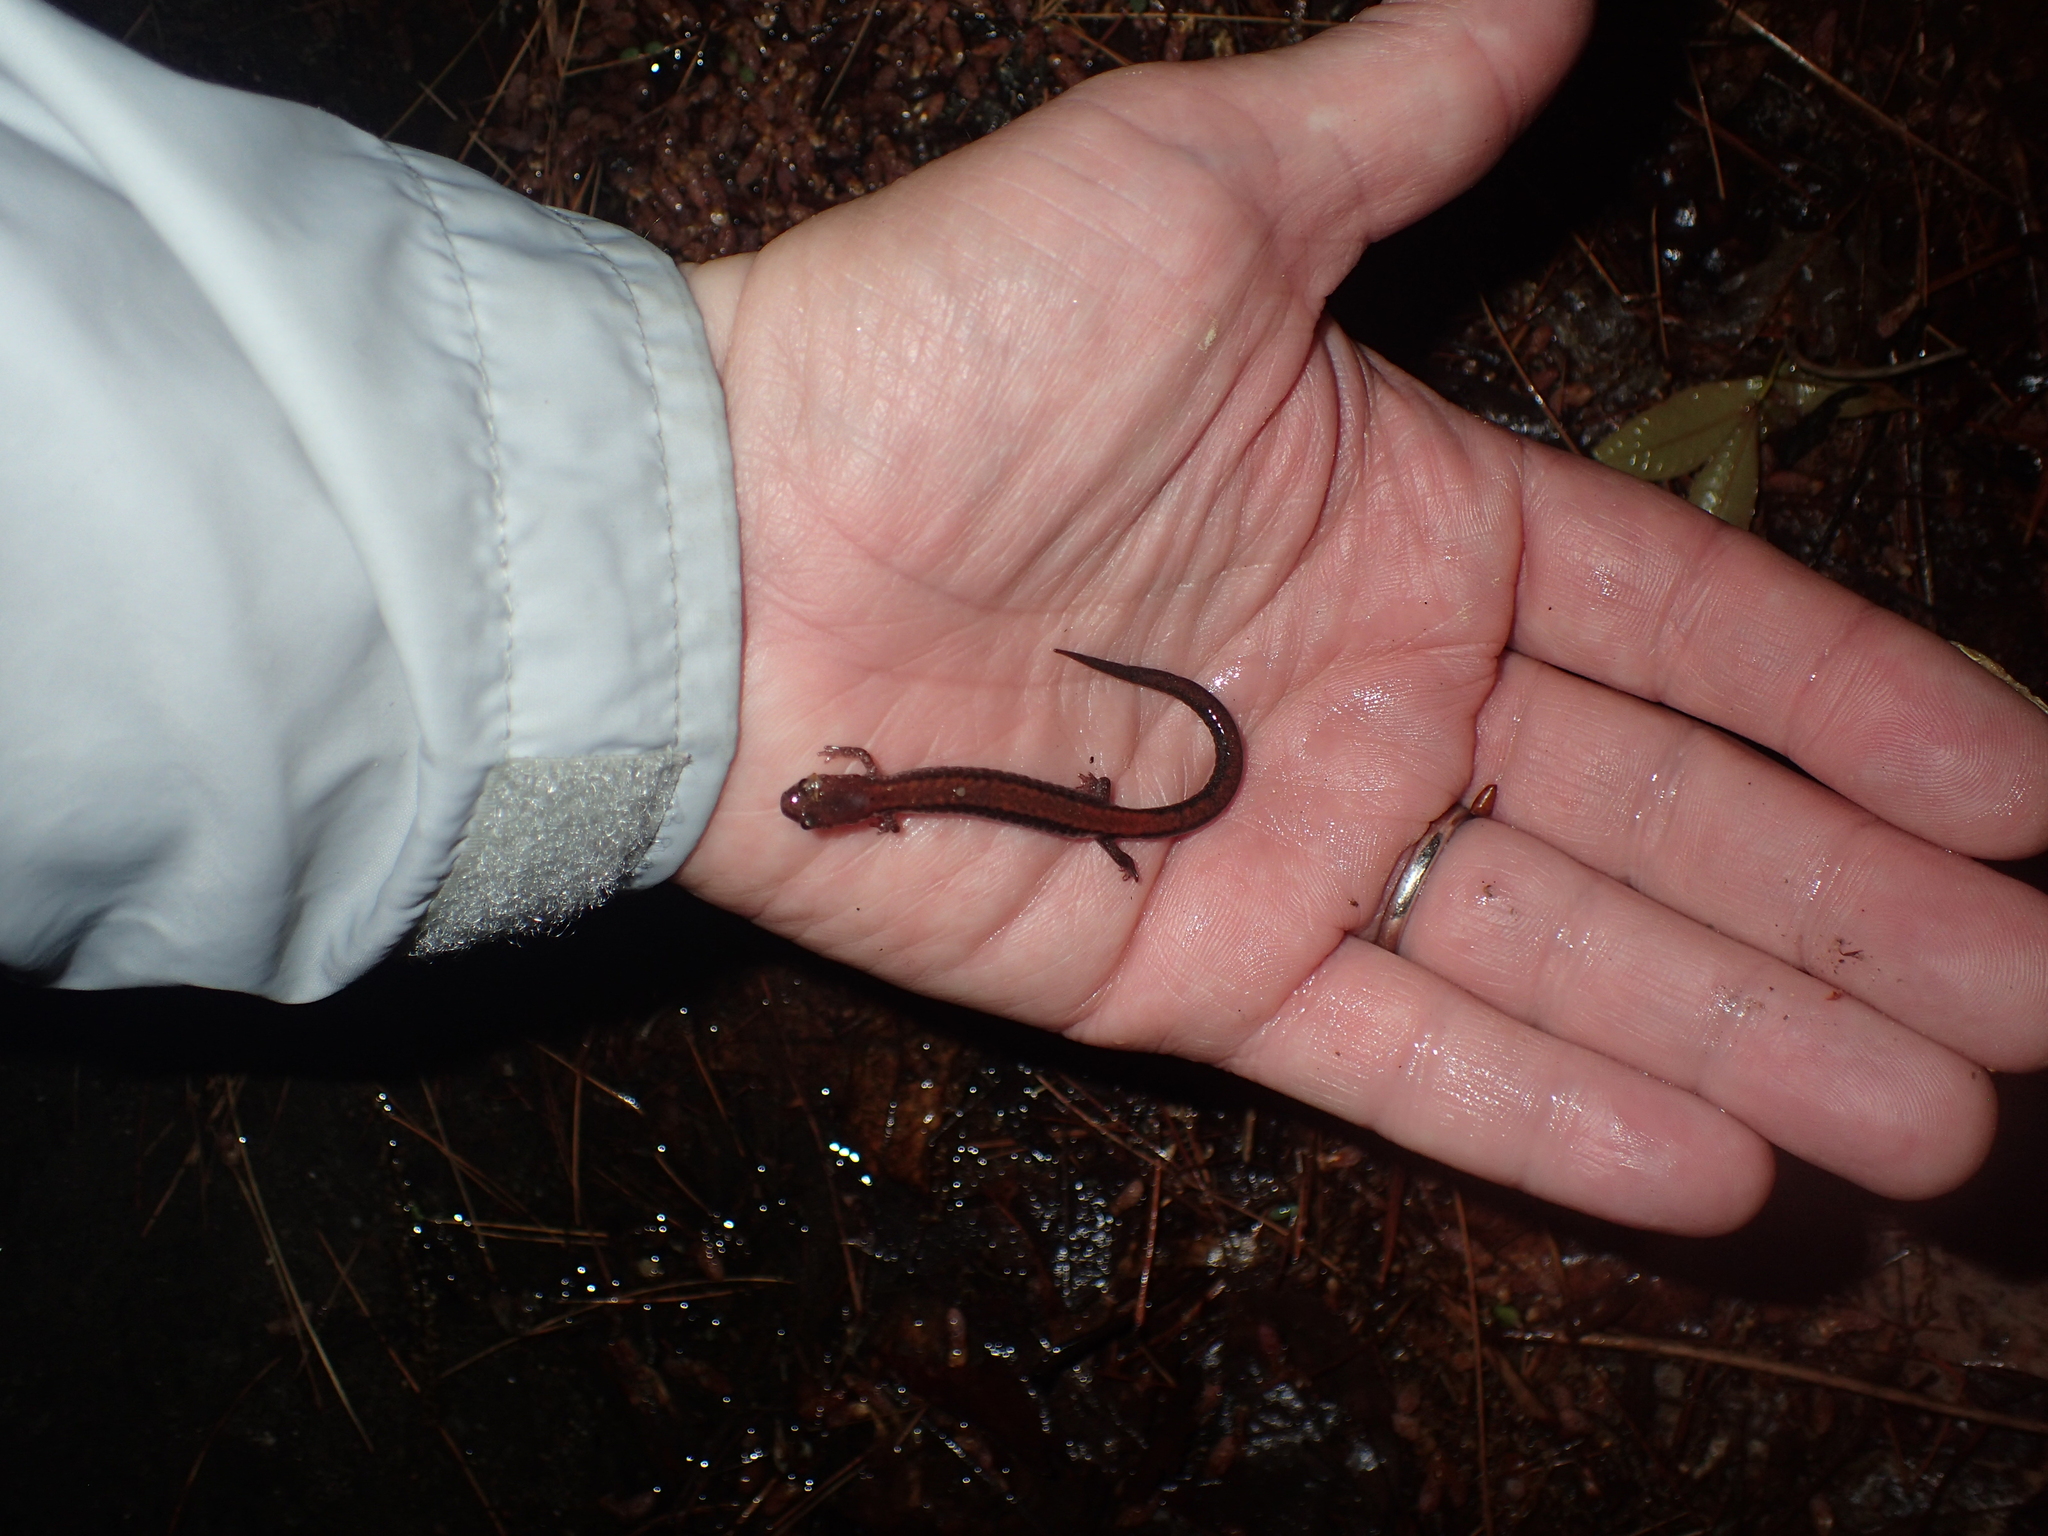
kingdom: Animalia
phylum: Chordata
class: Amphibia
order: Caudata
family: Plethodontidae
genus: Plethodon
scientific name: Plethodon cinereus
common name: Redback salamander
